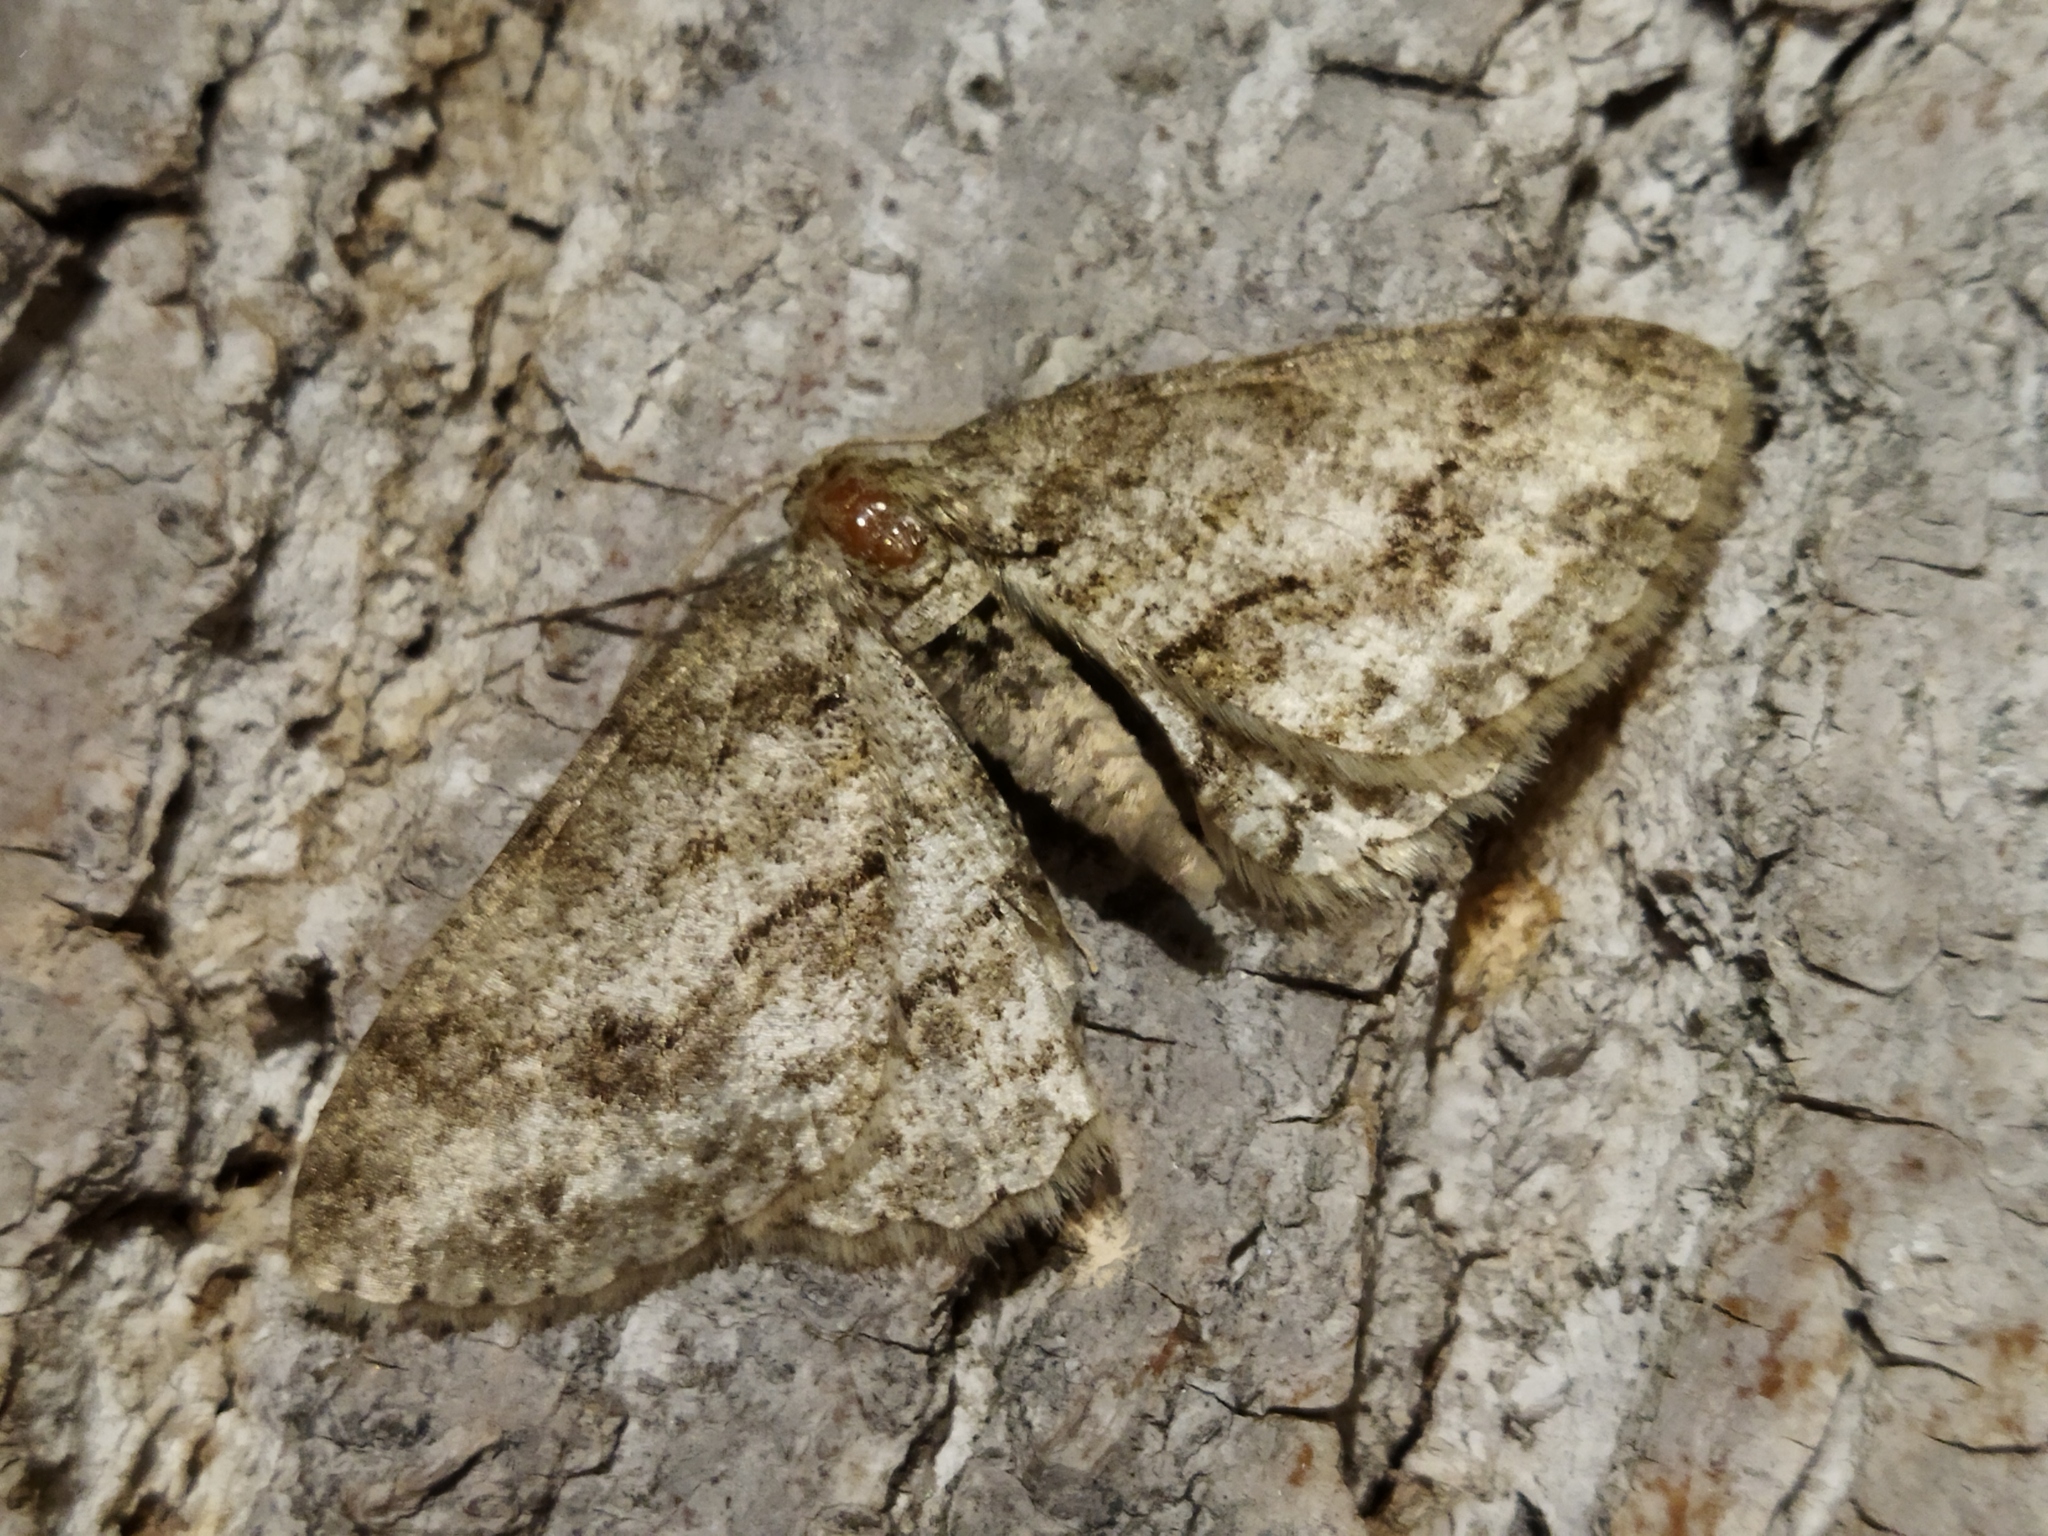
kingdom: Animalia
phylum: Arthropoda
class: Insecta
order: Lepidoptera
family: Geometridae
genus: Ectropis
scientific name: Ectropis crepuscularia
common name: Engrailed
